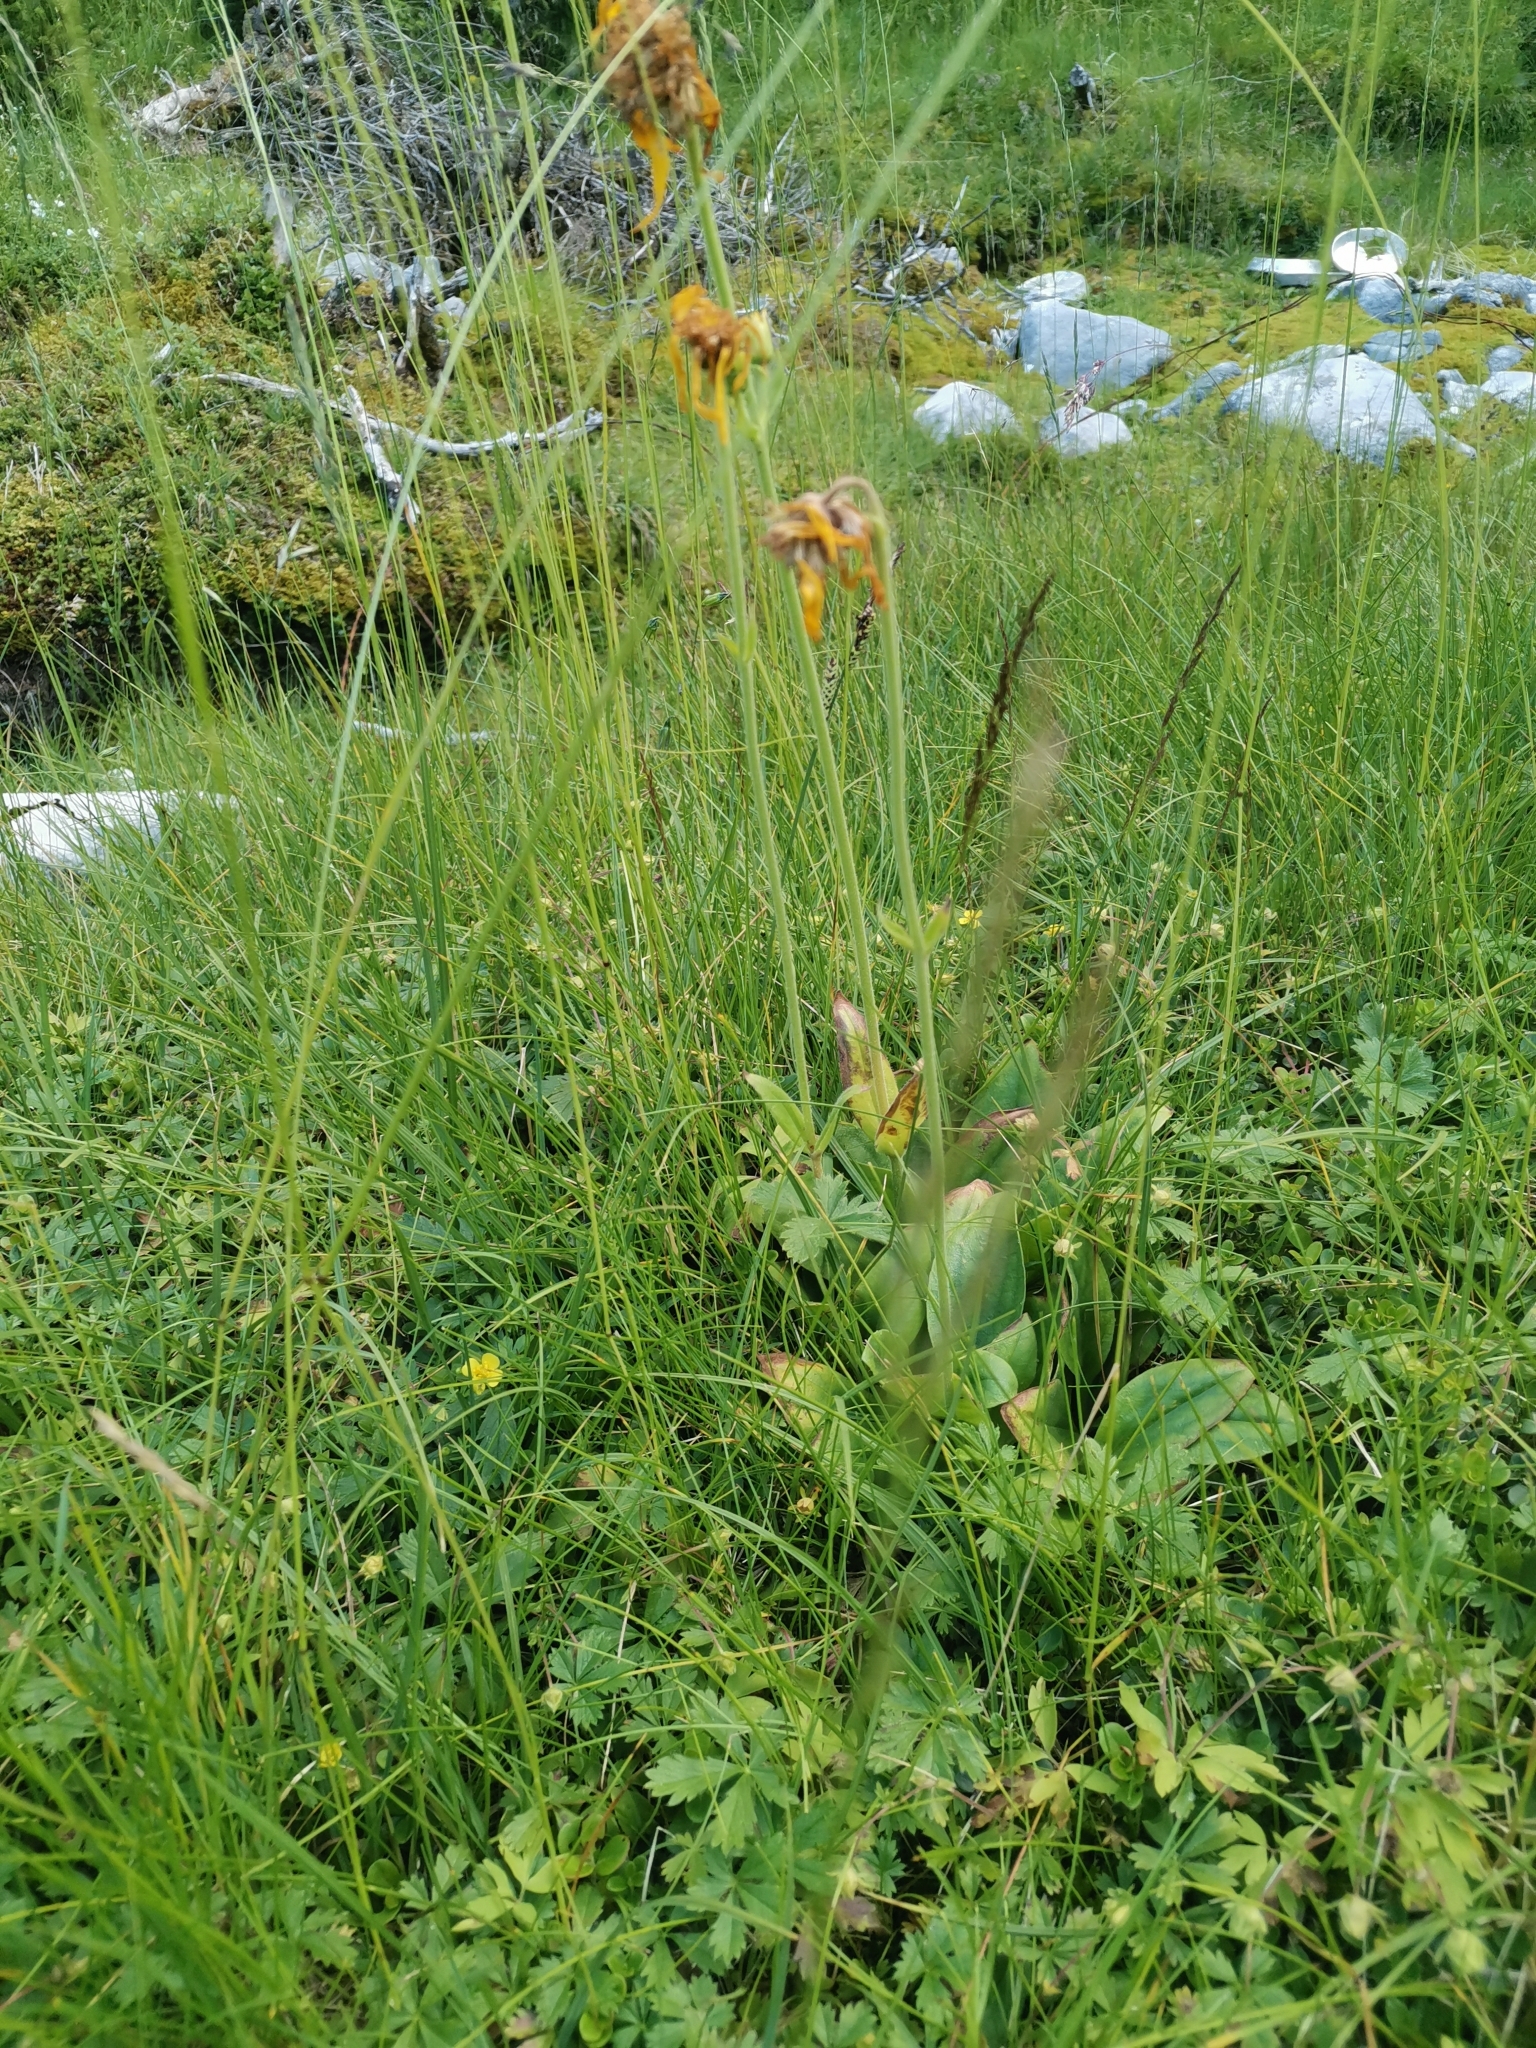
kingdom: Plantae
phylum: Tracheophyta
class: Magnoliopsida
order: Asterales
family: Asteraceae
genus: Arnica
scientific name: Arnica montana
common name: Leopard's bane
